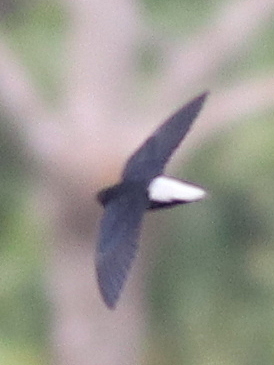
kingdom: Animalia
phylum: Chordata
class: Aves
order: Apodiformes
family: Apodidae
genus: Rhaphidura
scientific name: Rhaphidura leucopygialis
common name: Silver-rumped spinetail
